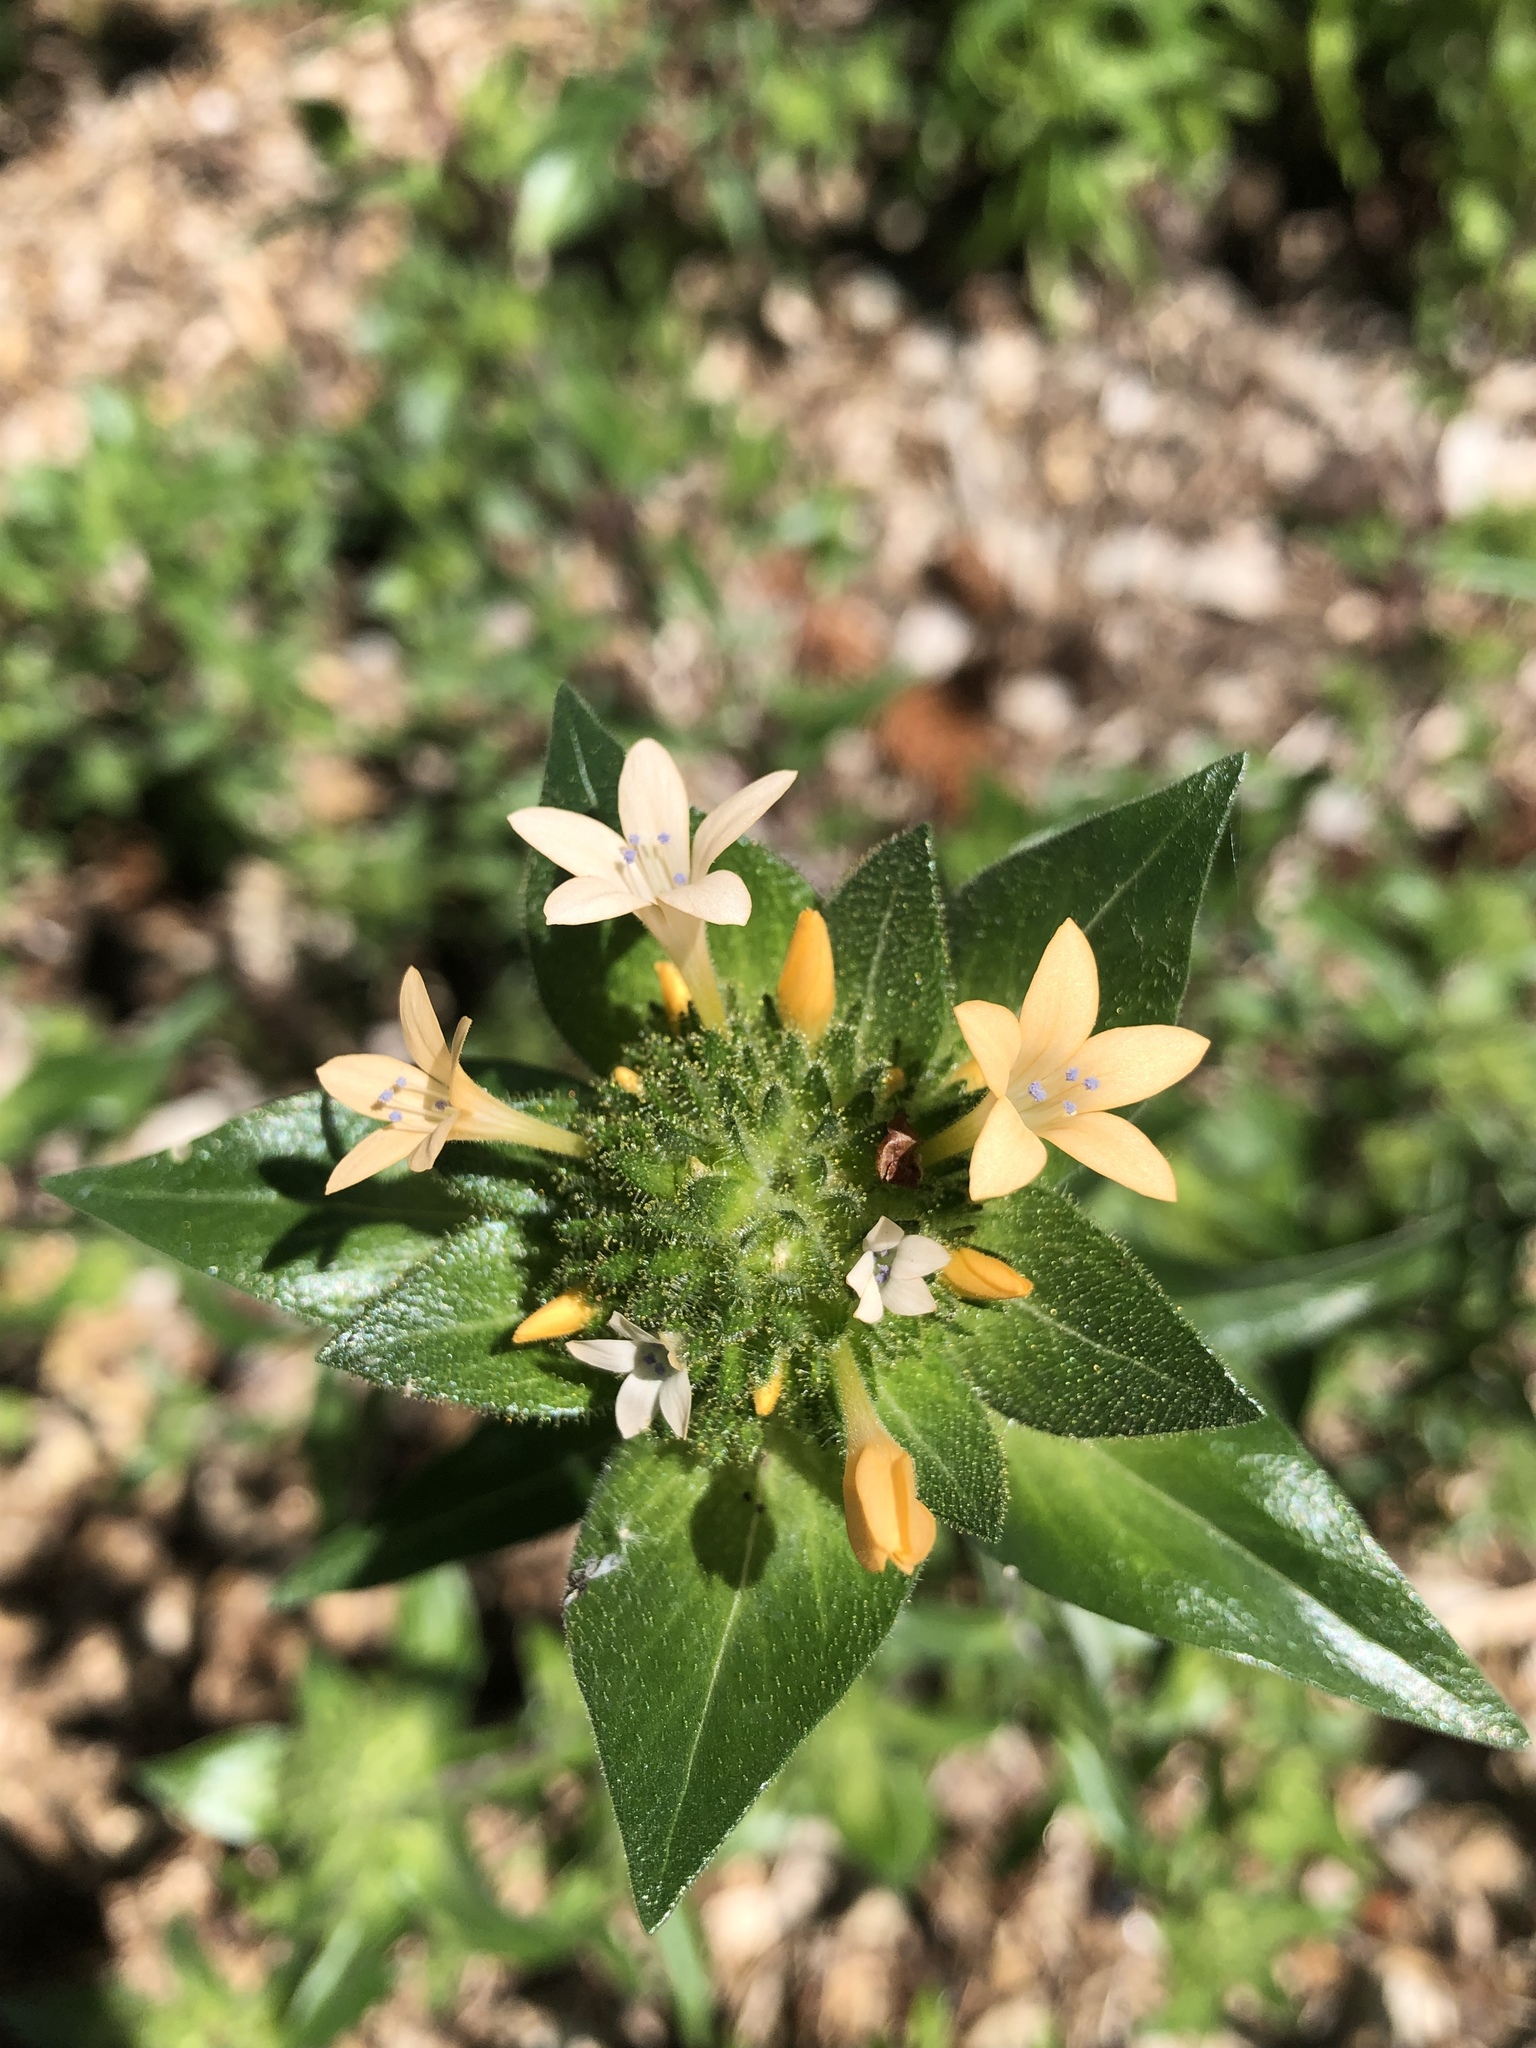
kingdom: Plantae
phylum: Tracheophyta
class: Magnoliopsida
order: Ericales
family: Polemoniaceae
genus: Collomia
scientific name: Collomia grandiflora
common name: California strawflower
